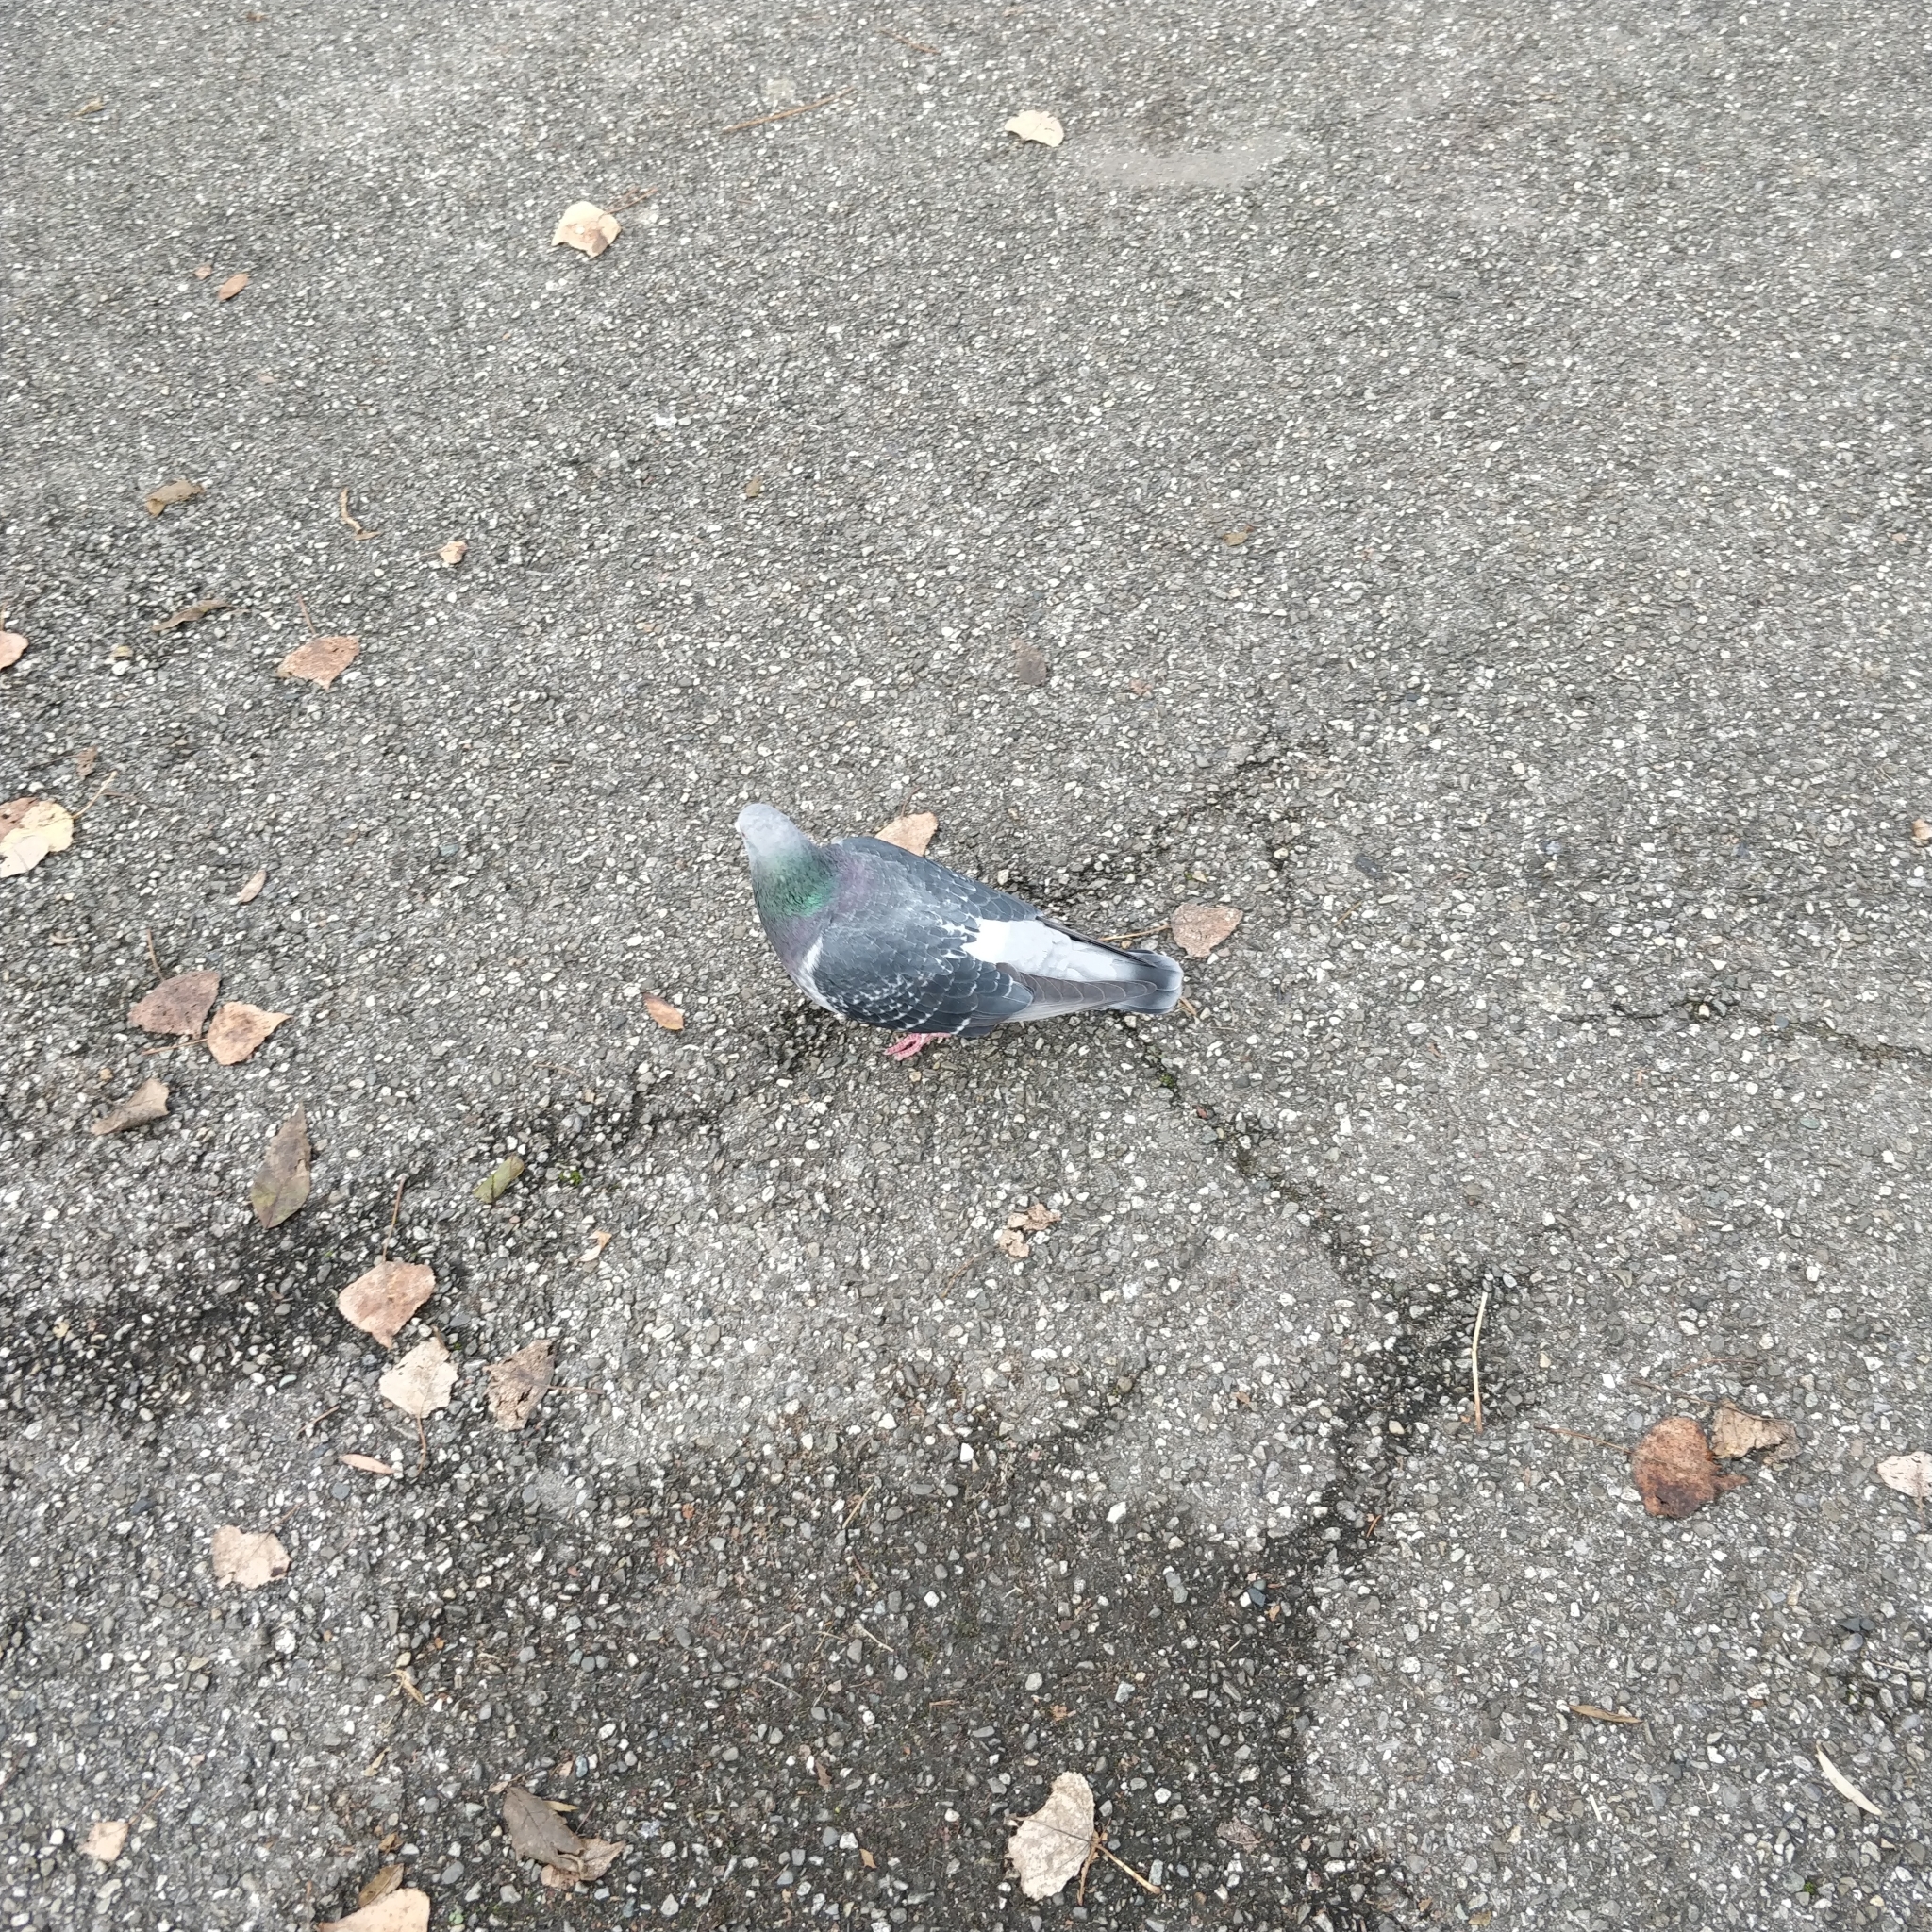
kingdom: Animalia
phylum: Chordata
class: Aves
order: Columbiformes
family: Columbidae
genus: Columba
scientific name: Columba livia
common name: Rock pigeon
